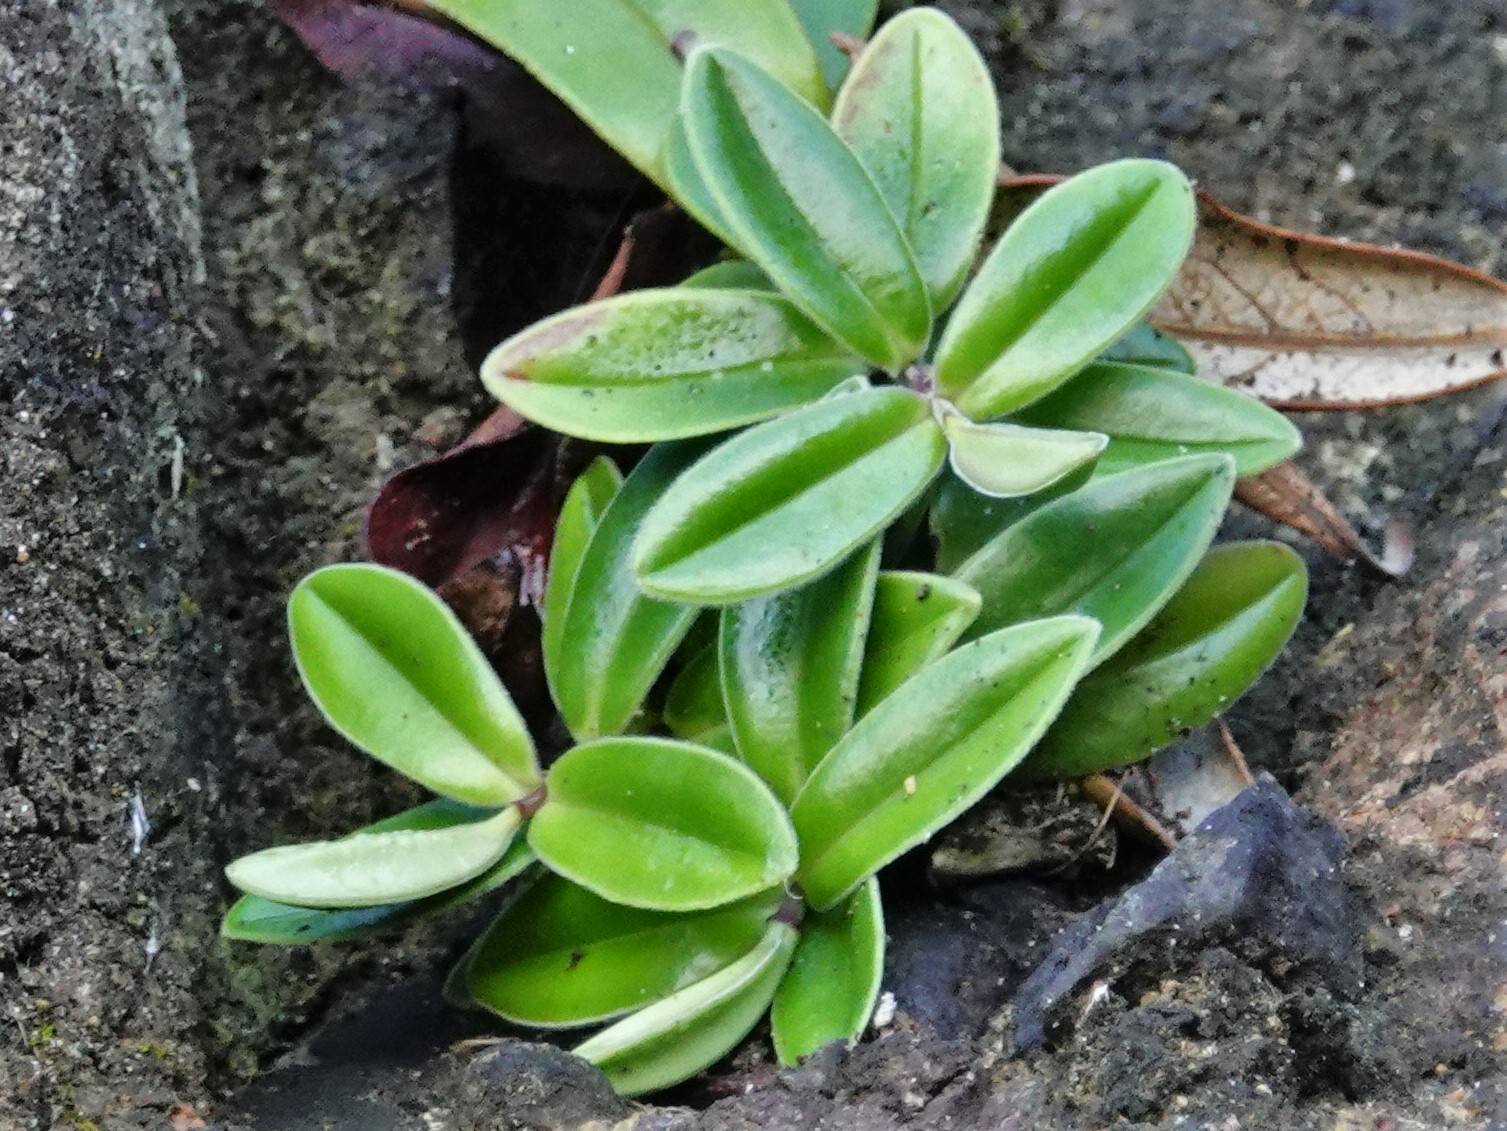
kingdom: Plantae
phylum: Tracheophyta
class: Magnoliopsida
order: Lamiales
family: Plantaginaceae
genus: Veronica
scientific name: Veronica obtusata
